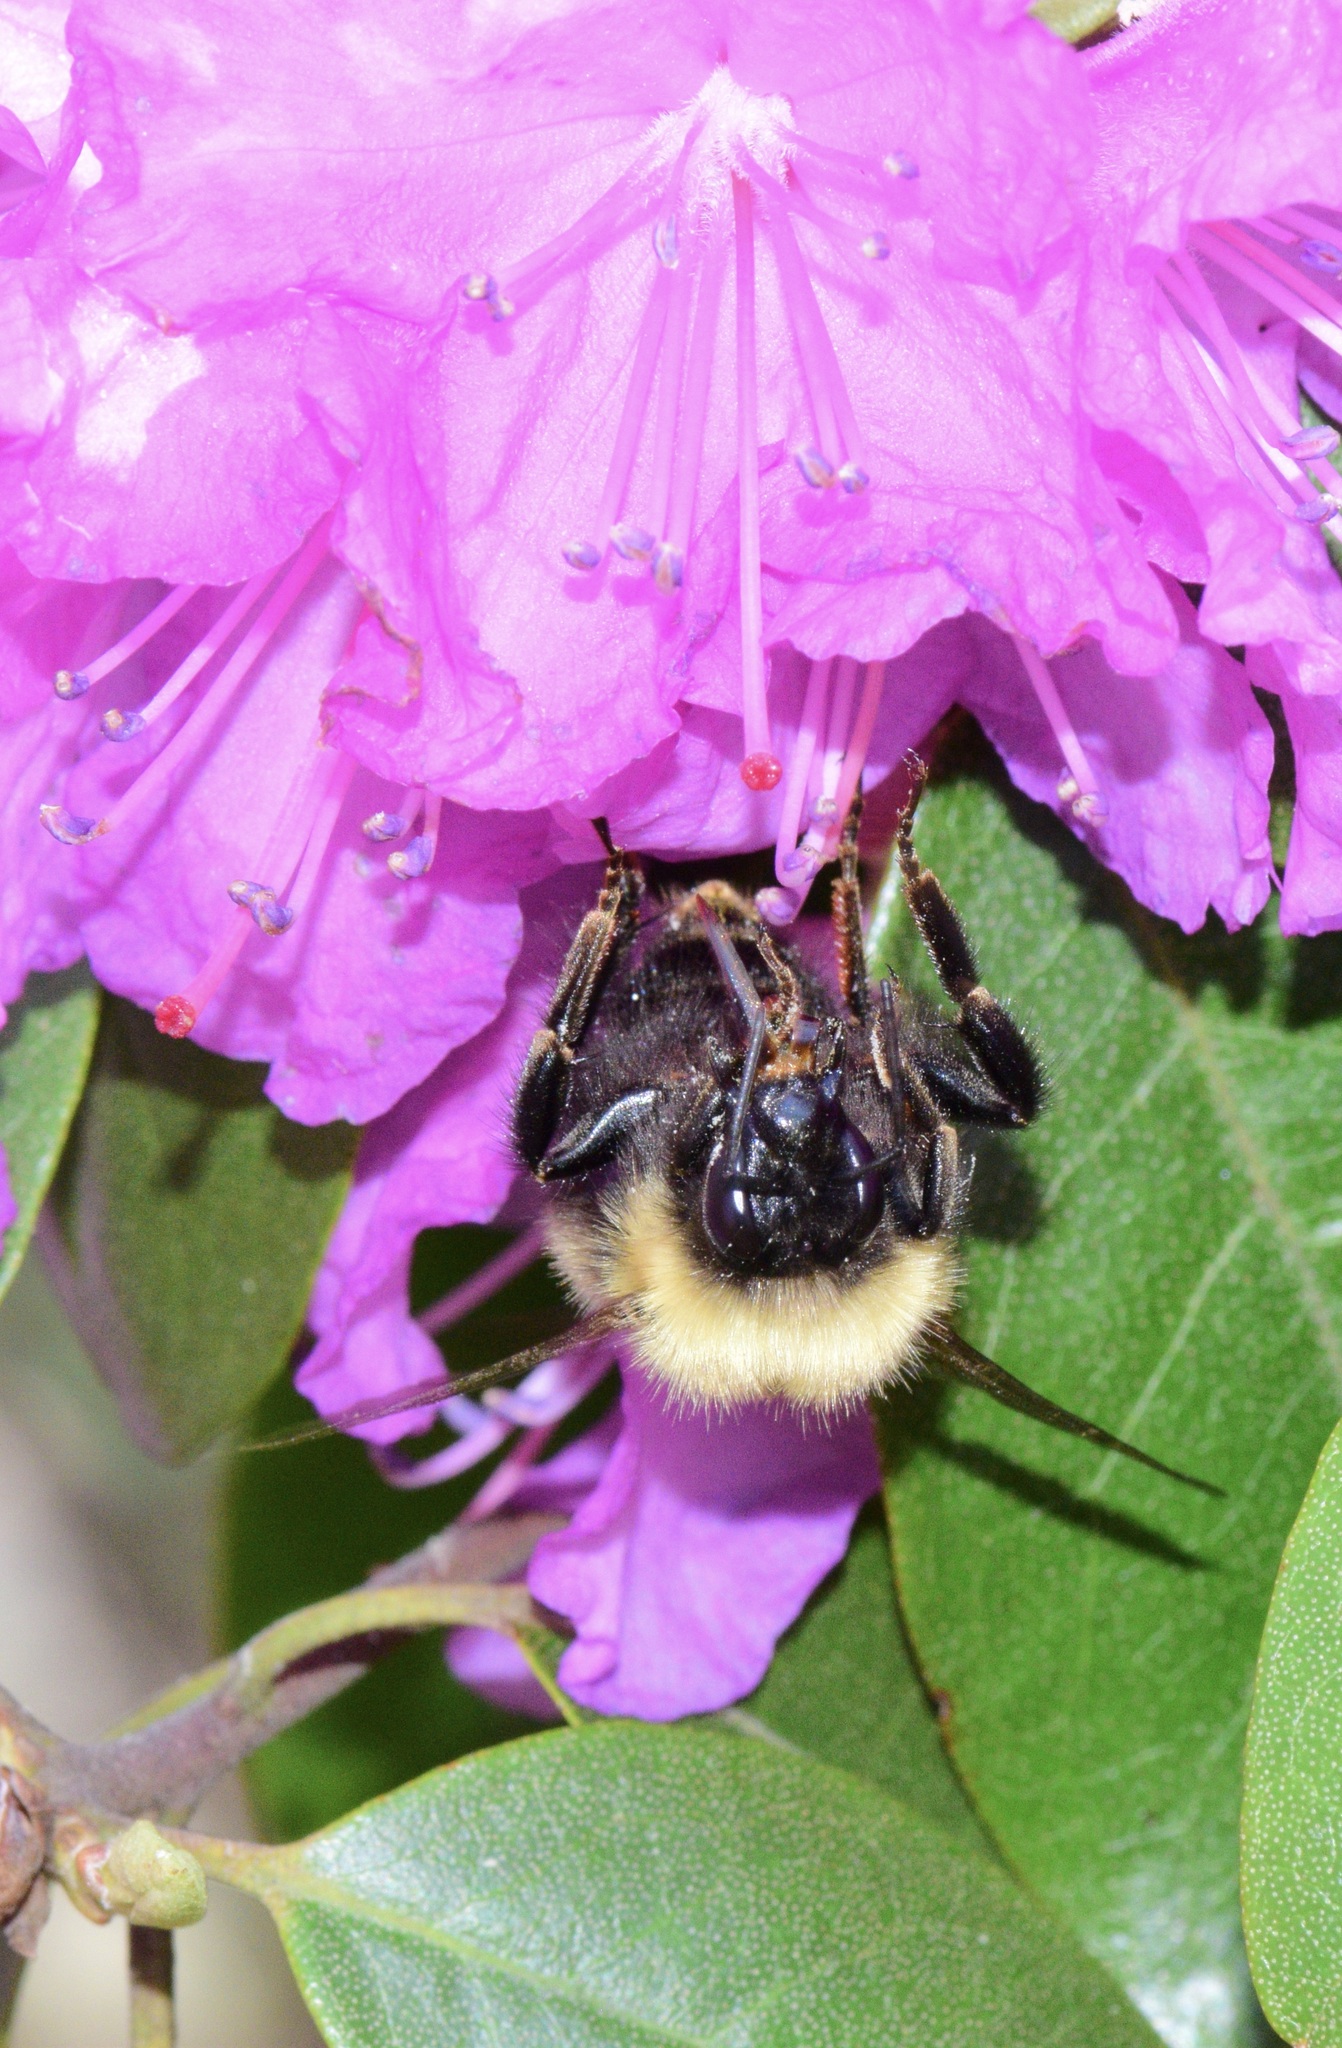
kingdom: Animalia
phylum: Arthropoda
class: Insecta
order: Hymenoptera
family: Apidae
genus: Bombus
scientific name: Bombus perplexus
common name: Confusing bumble bee
